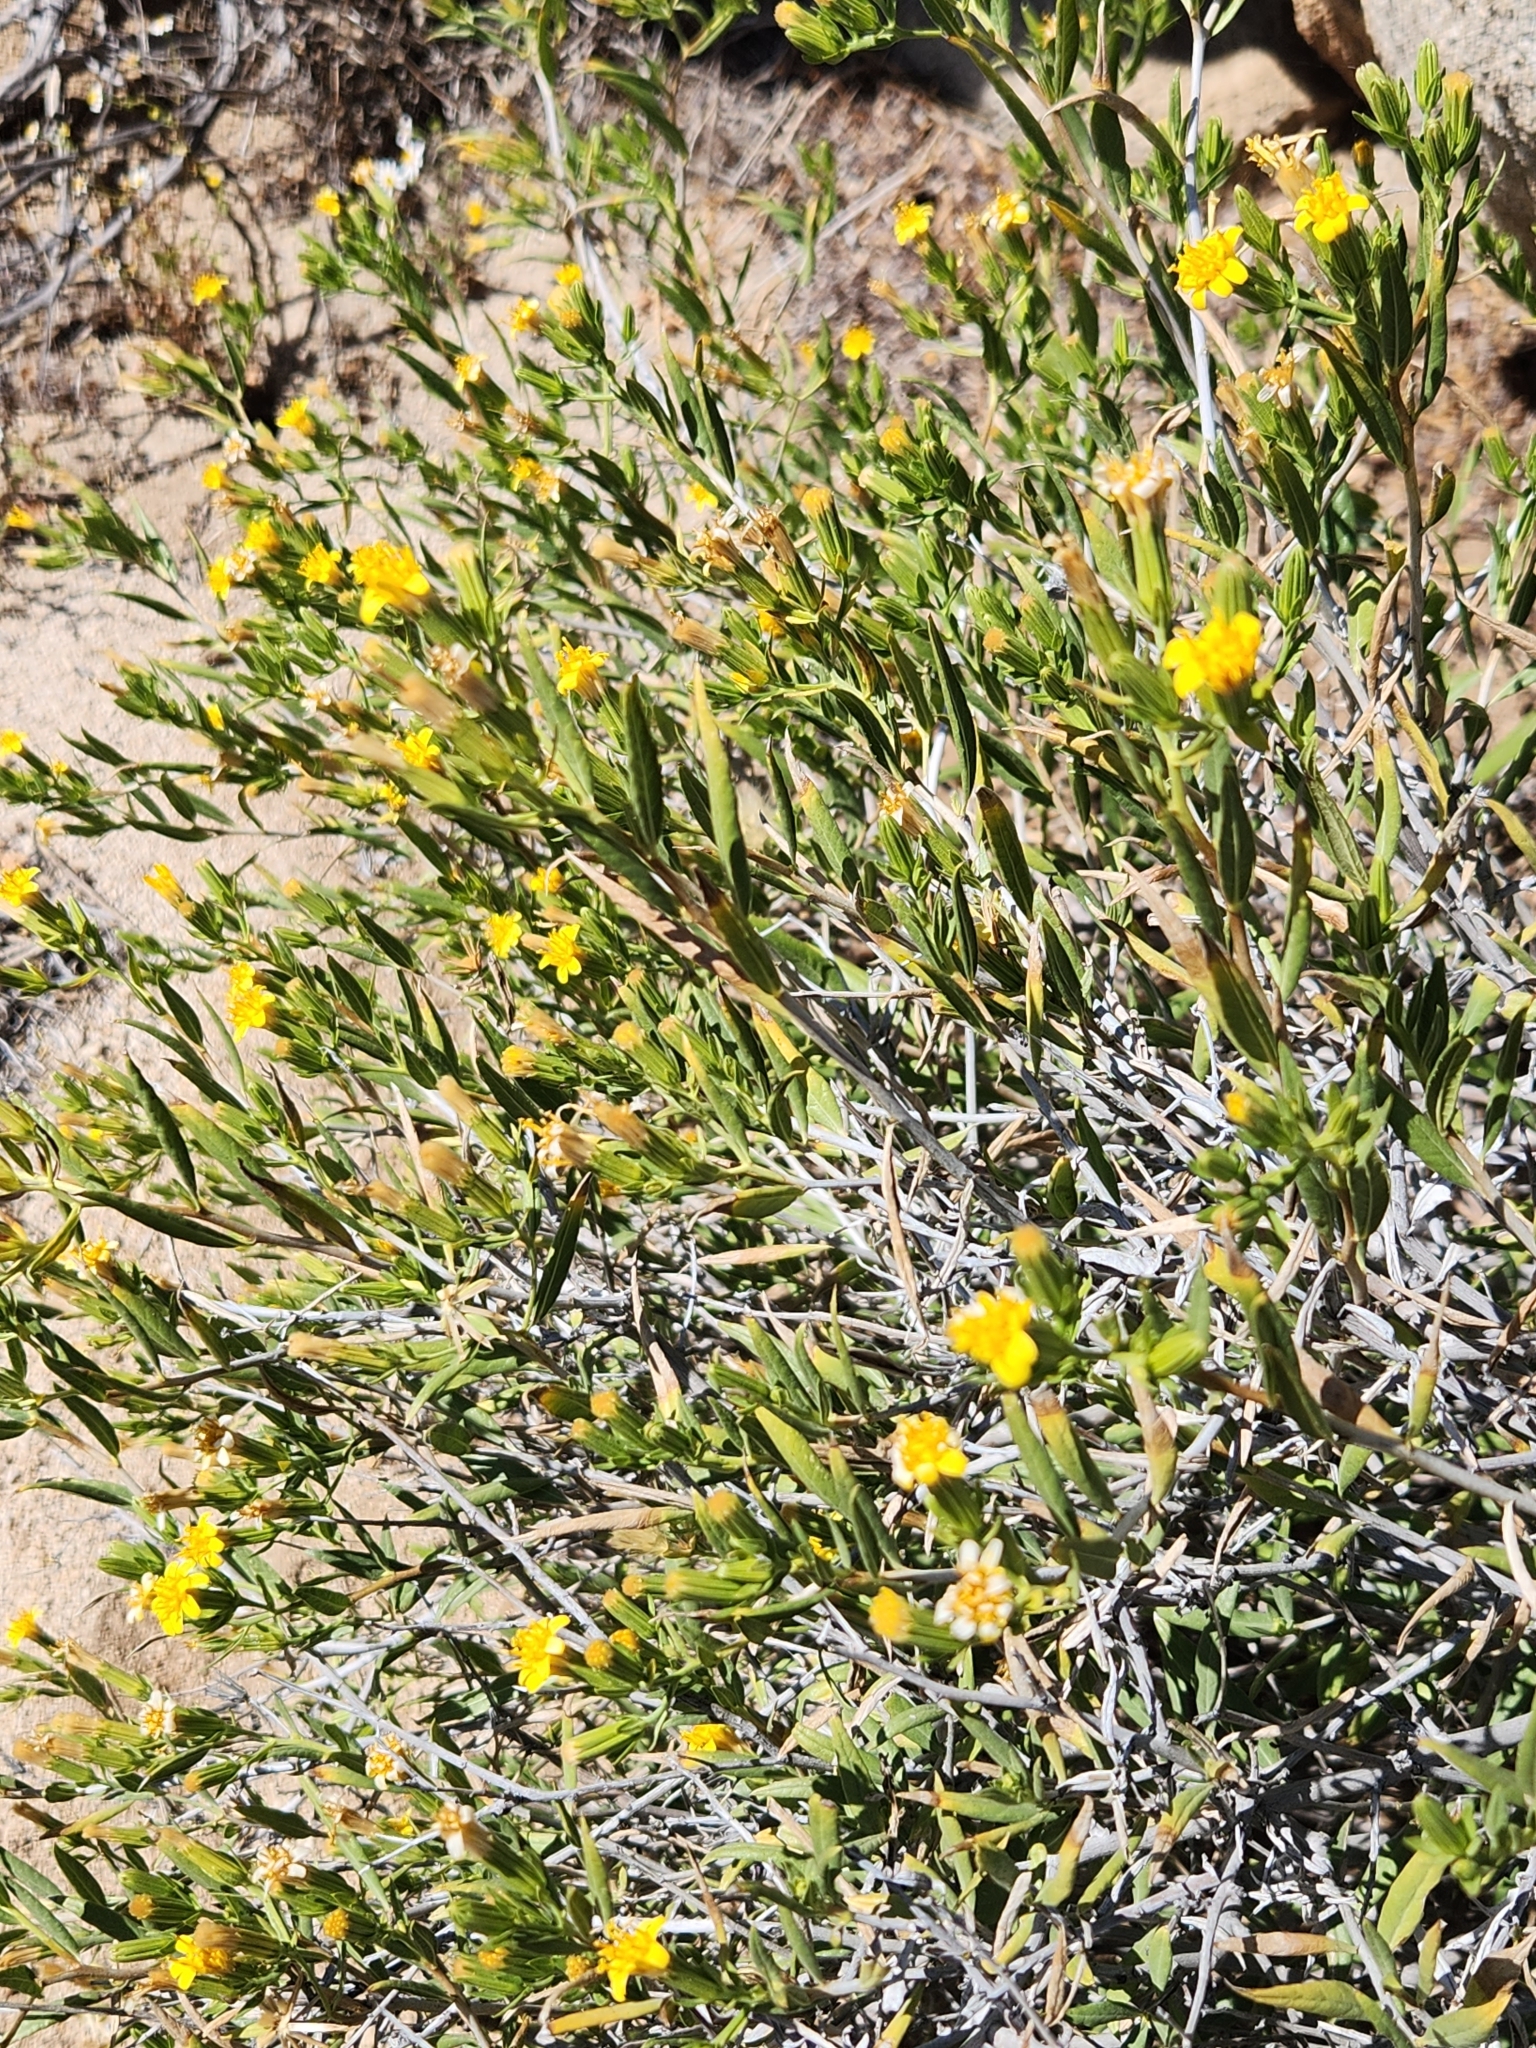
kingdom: Plantae
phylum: Tracheophyta
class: Magnoliopsida
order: Asterales
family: Asteraceae
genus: Trixis
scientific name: Trixis californica
